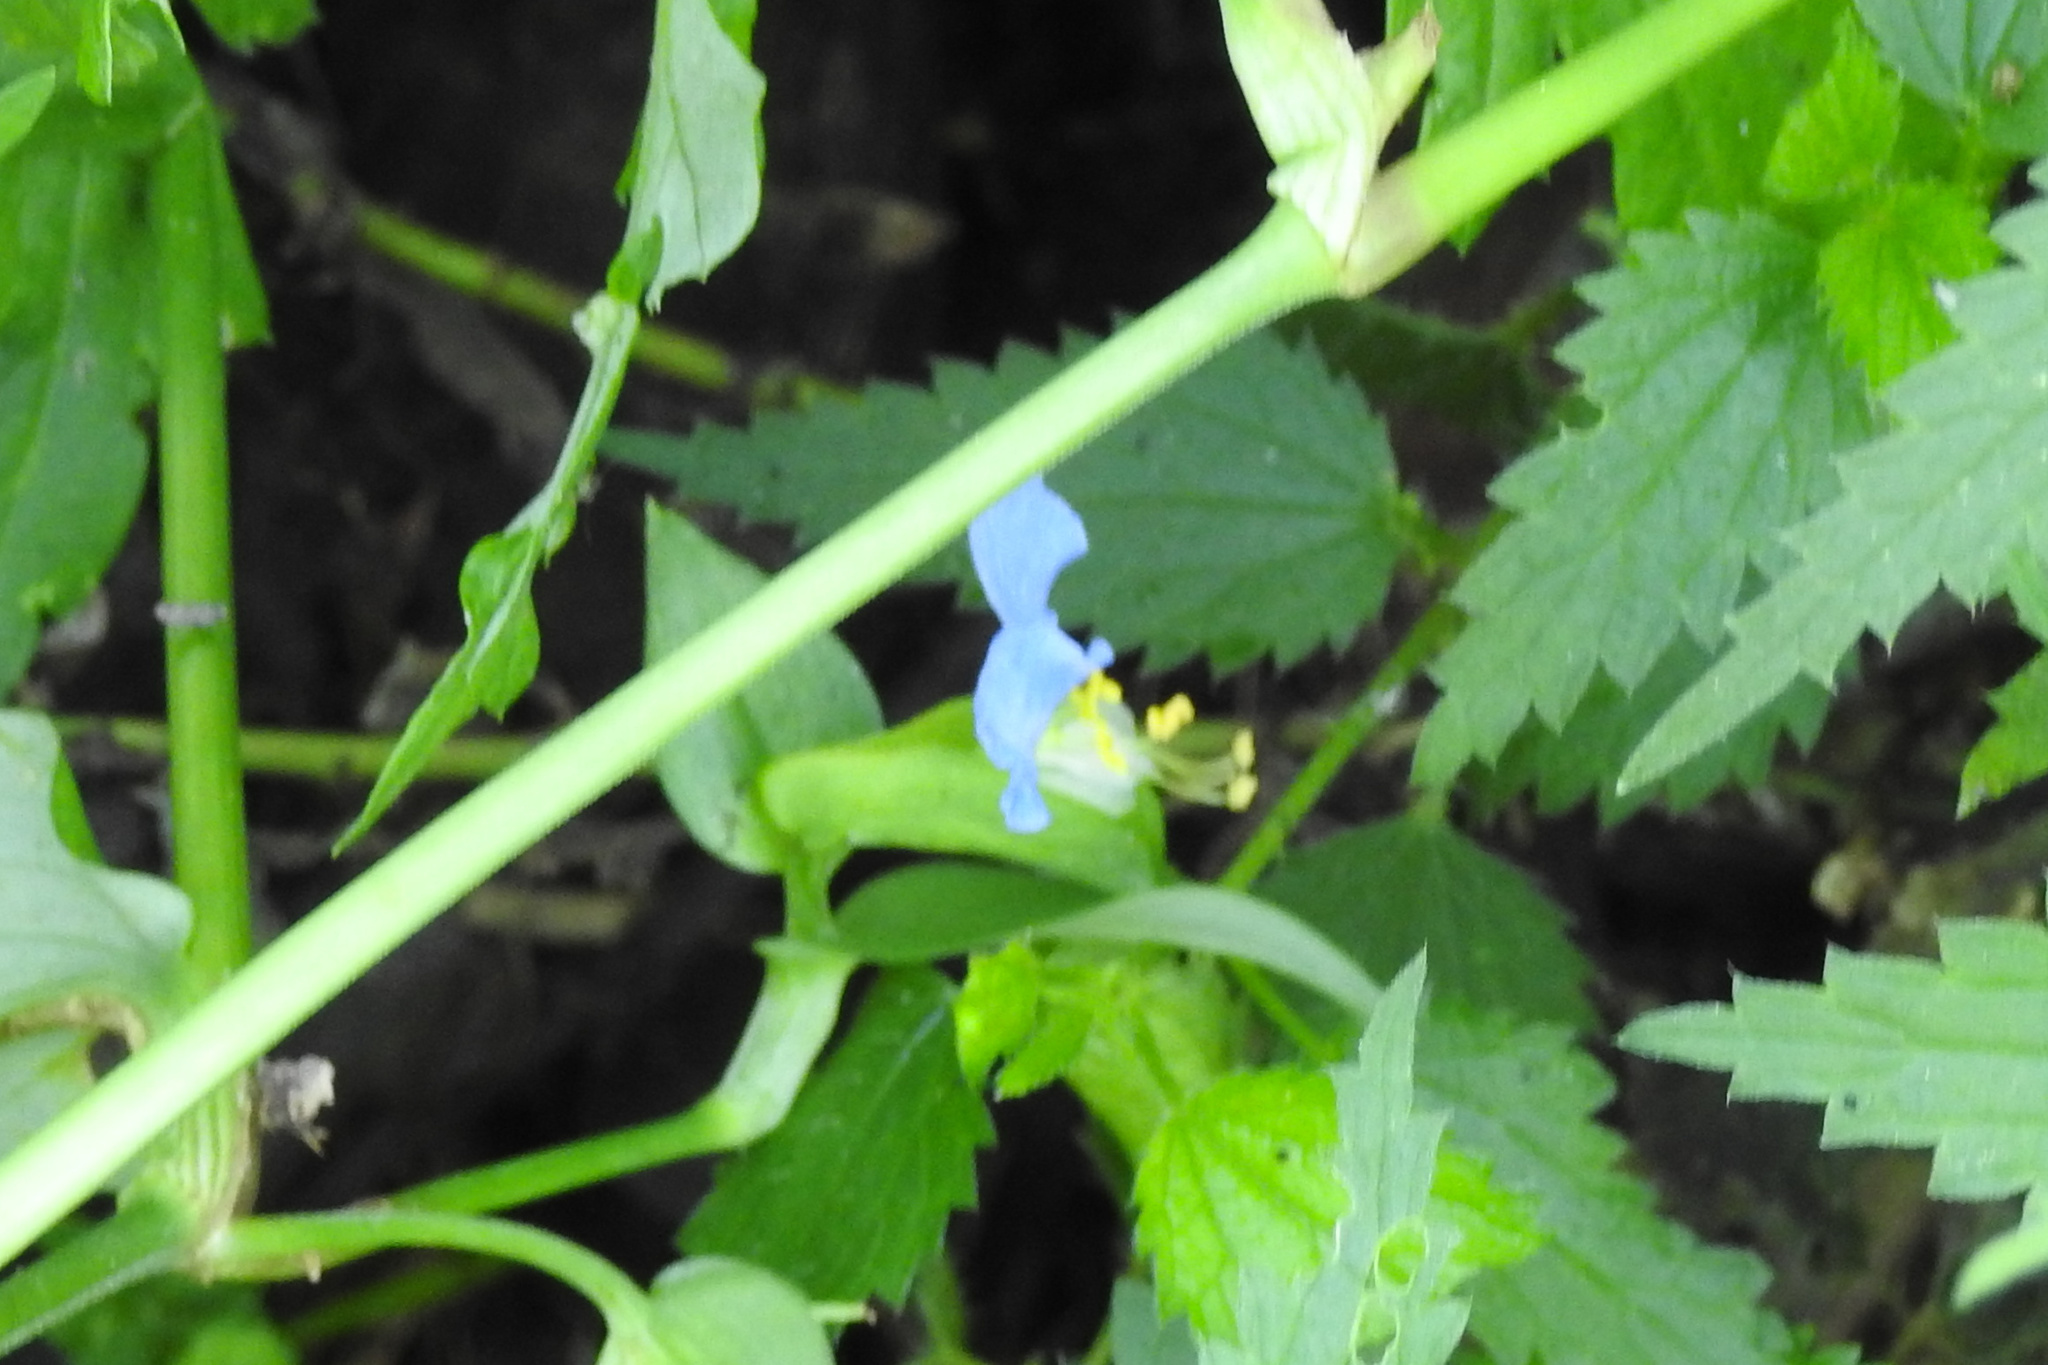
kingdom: Plantae
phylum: Tracheophyta
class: Liliopsida
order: Commelinales
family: Commelinaceae
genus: Commelina
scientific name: Commelina communis
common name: Asiatic dayflower
